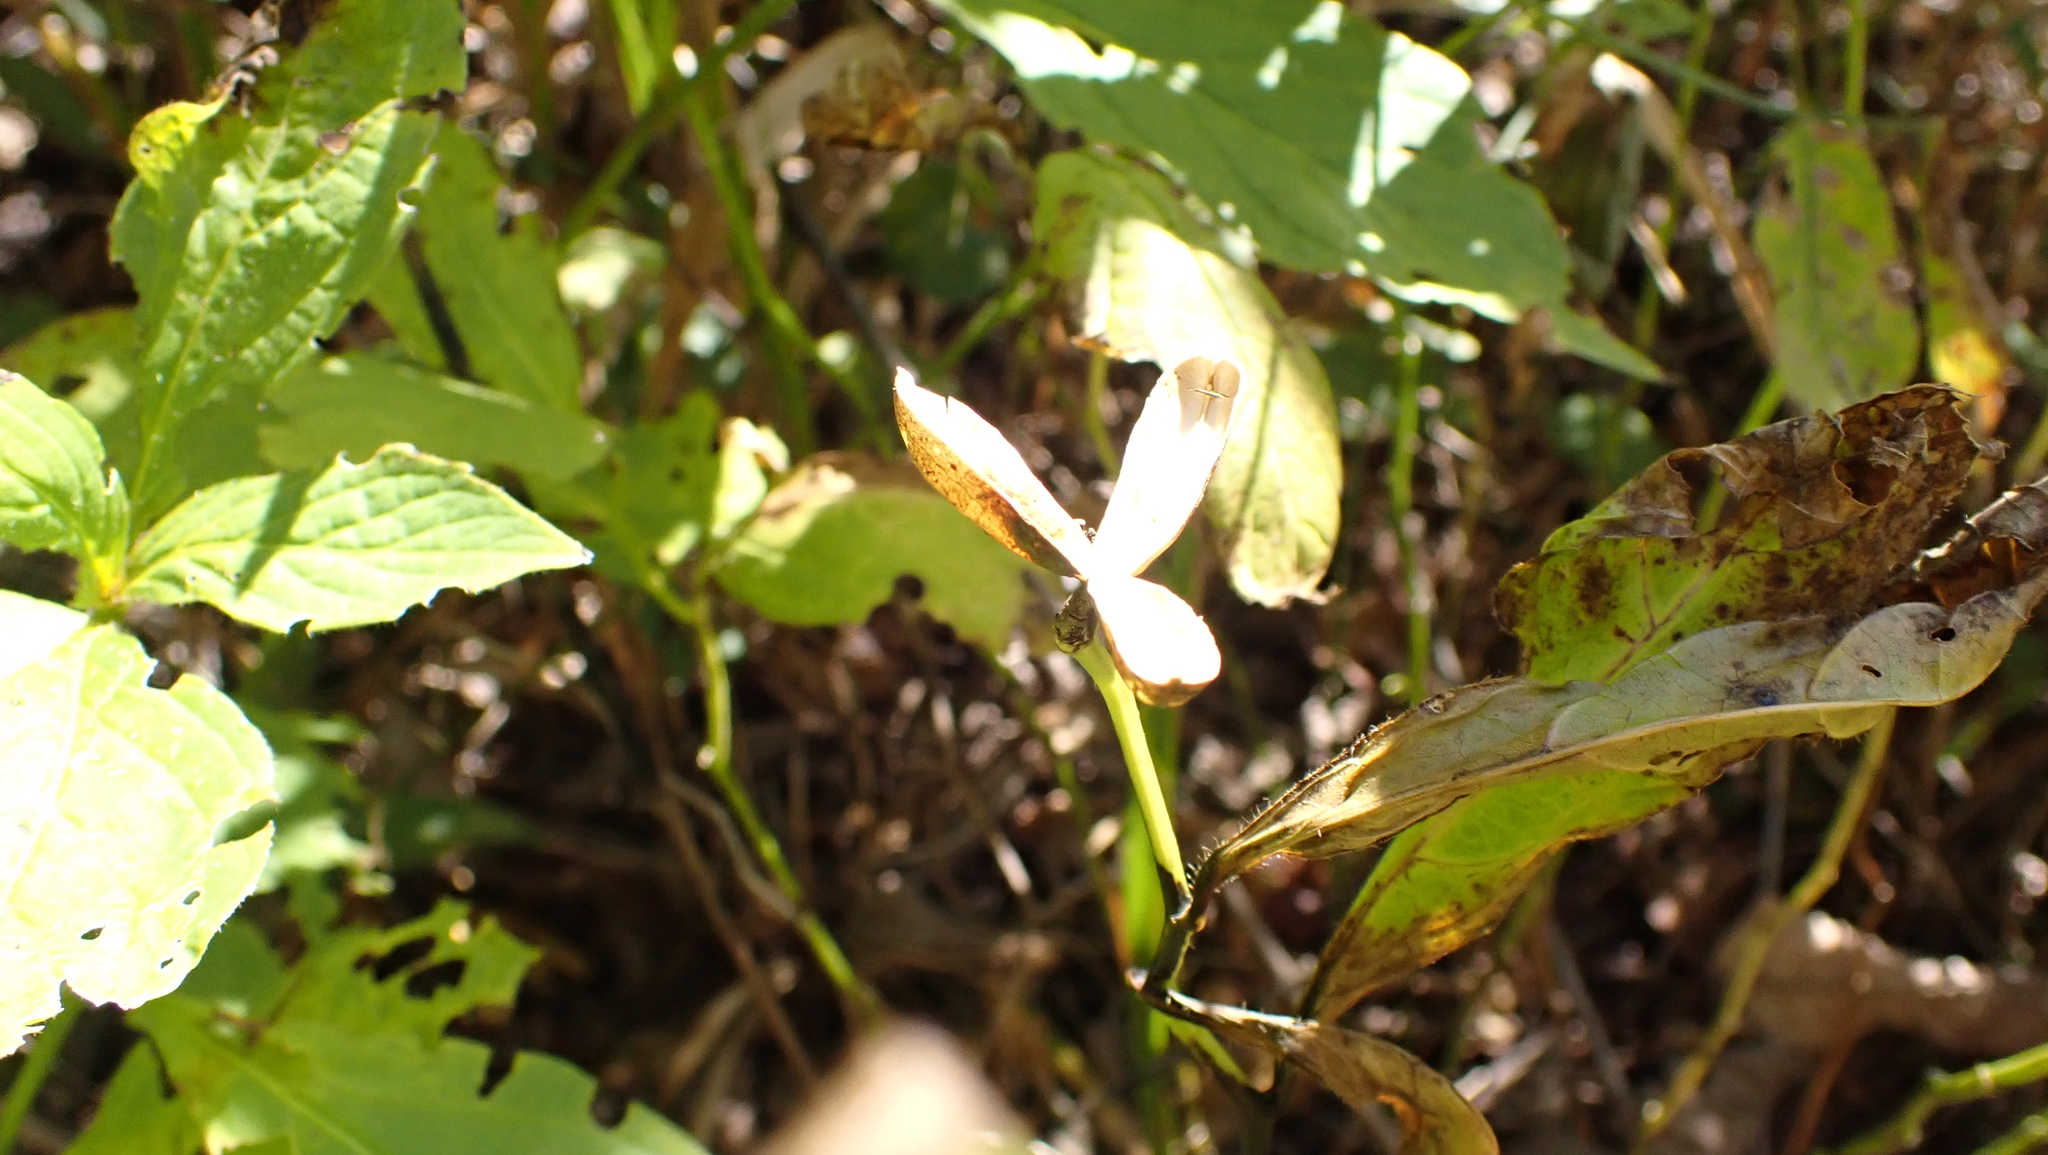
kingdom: Plantae
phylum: Tracheophyta
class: Magnoliopsida
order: Malpighiales
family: Violaceae
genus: Cubelium
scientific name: Cubelium concolor
